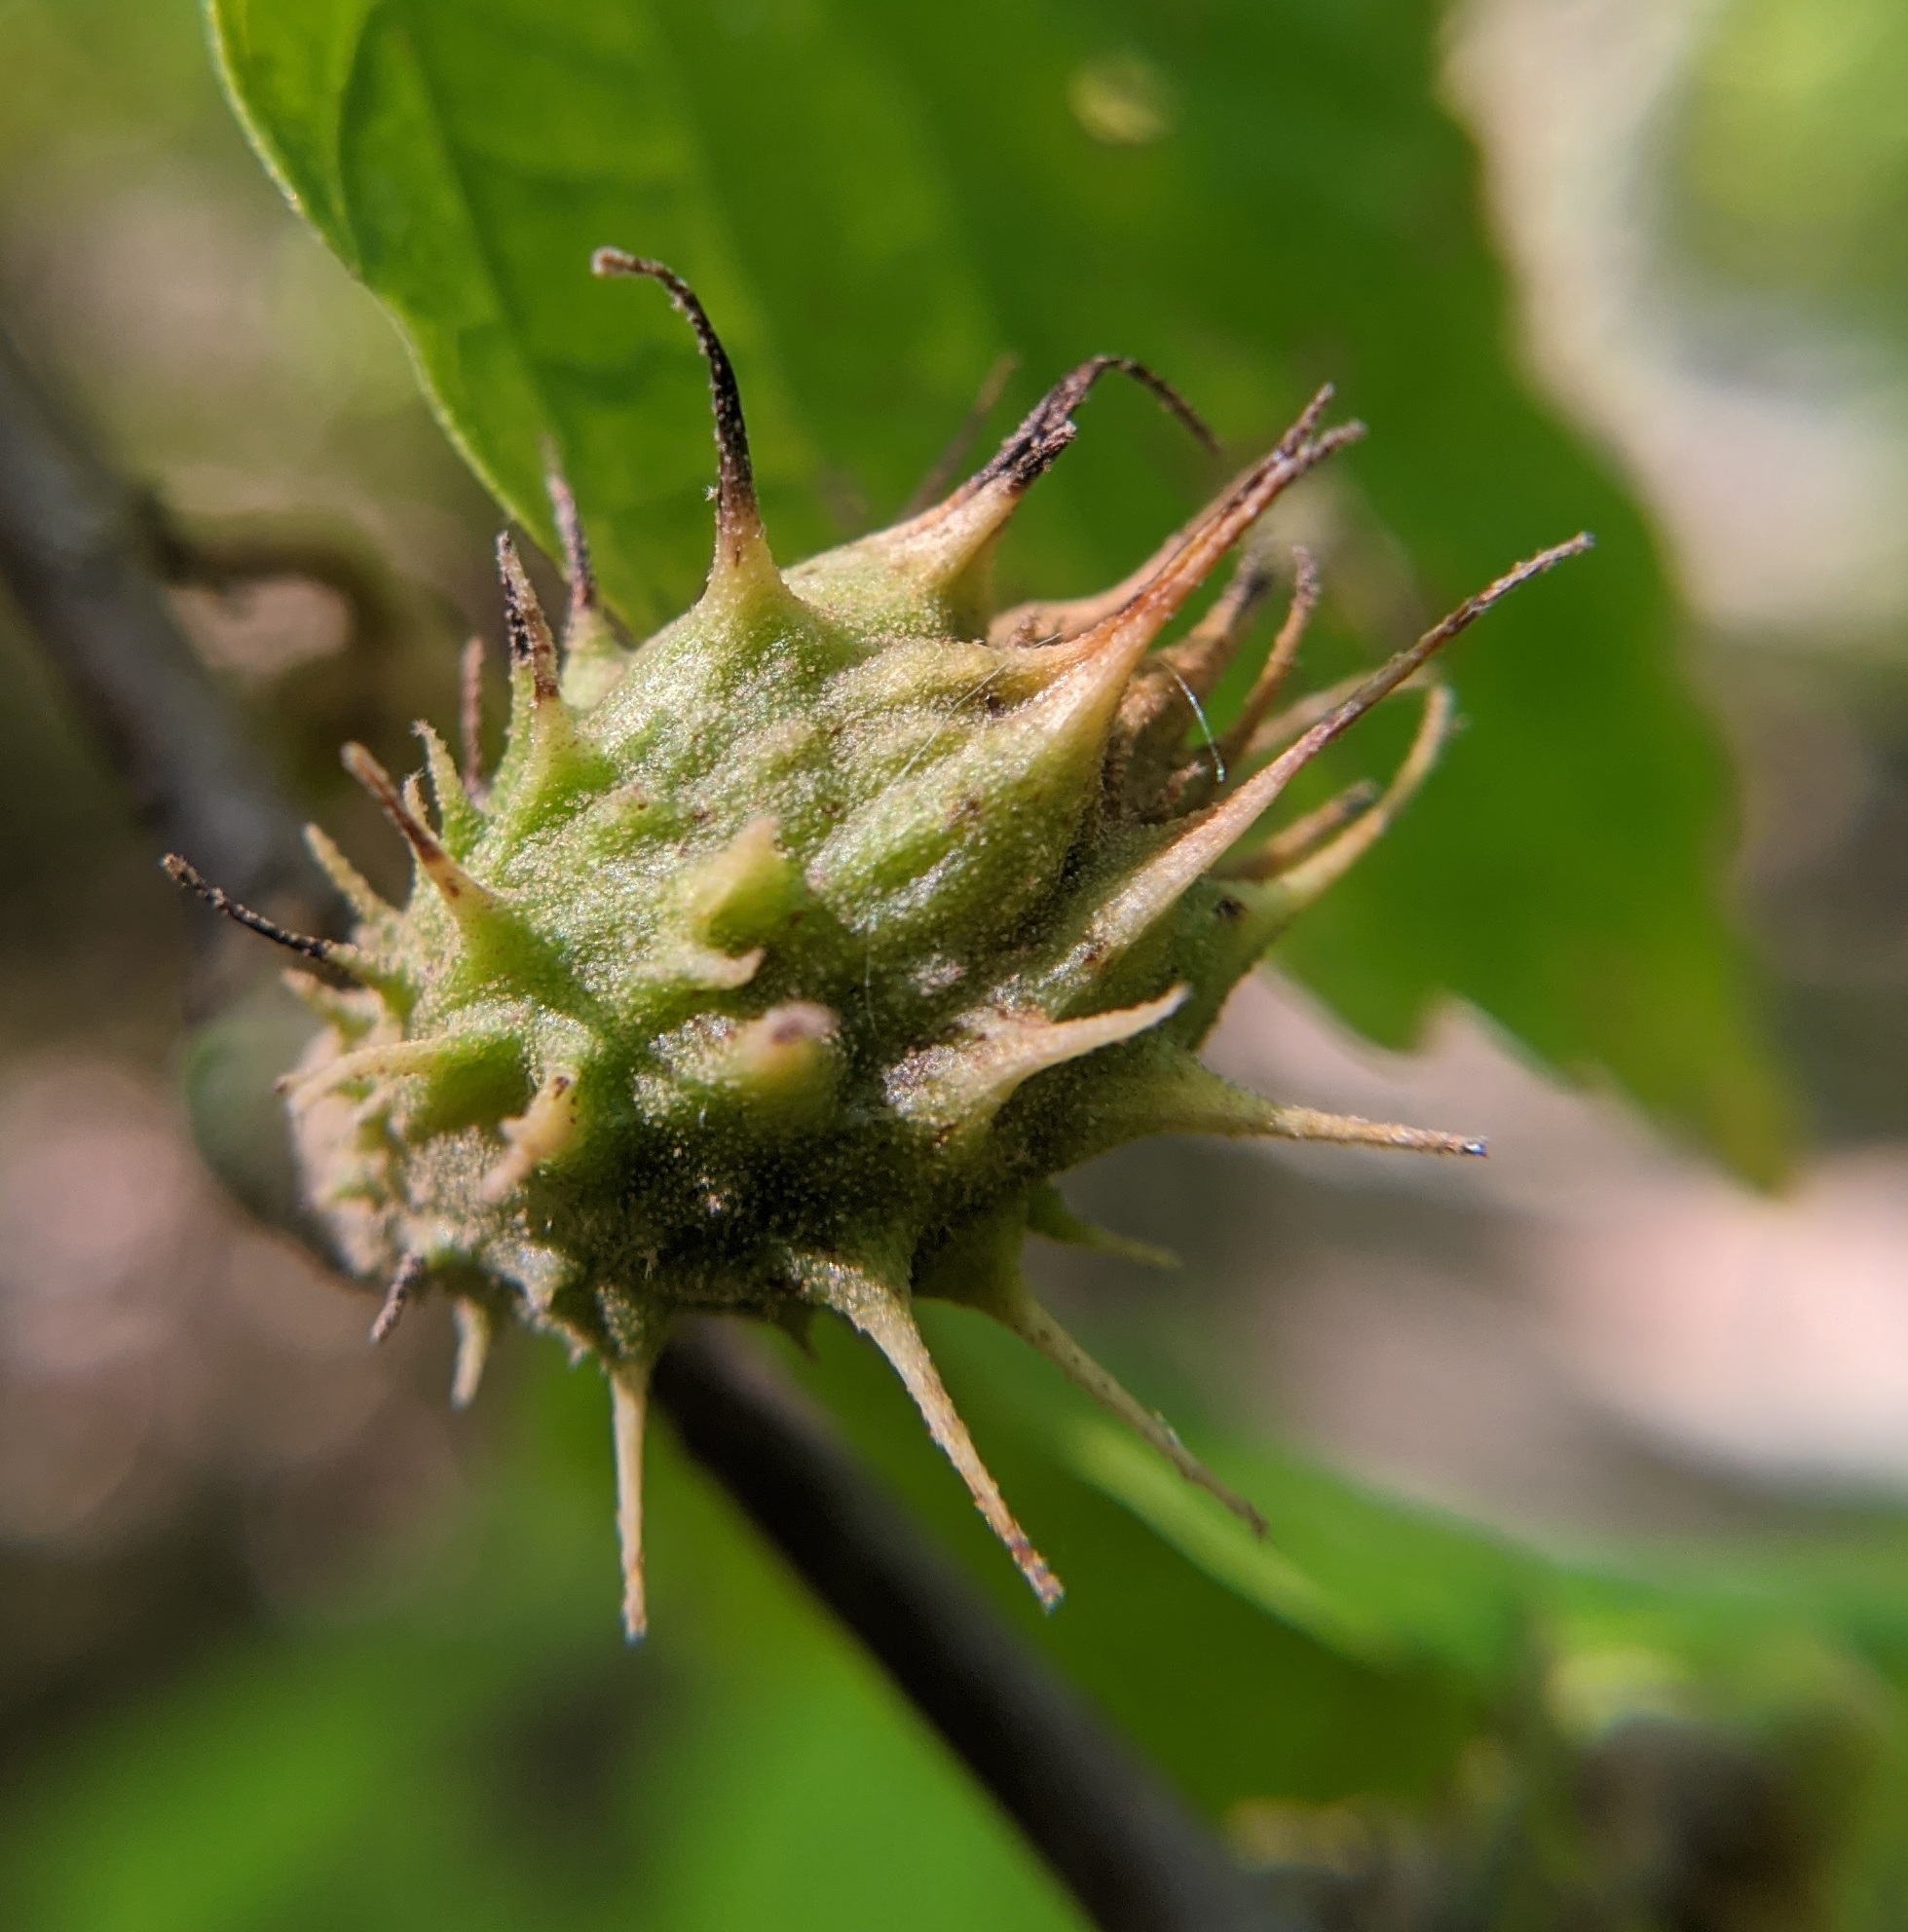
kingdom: Animalia
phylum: Arthropoda
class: Insecta
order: Hemiptera
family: Aphididae
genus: Hamamelistes
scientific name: Hamamelistes spinosus
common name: Witch hazel gall aphid
